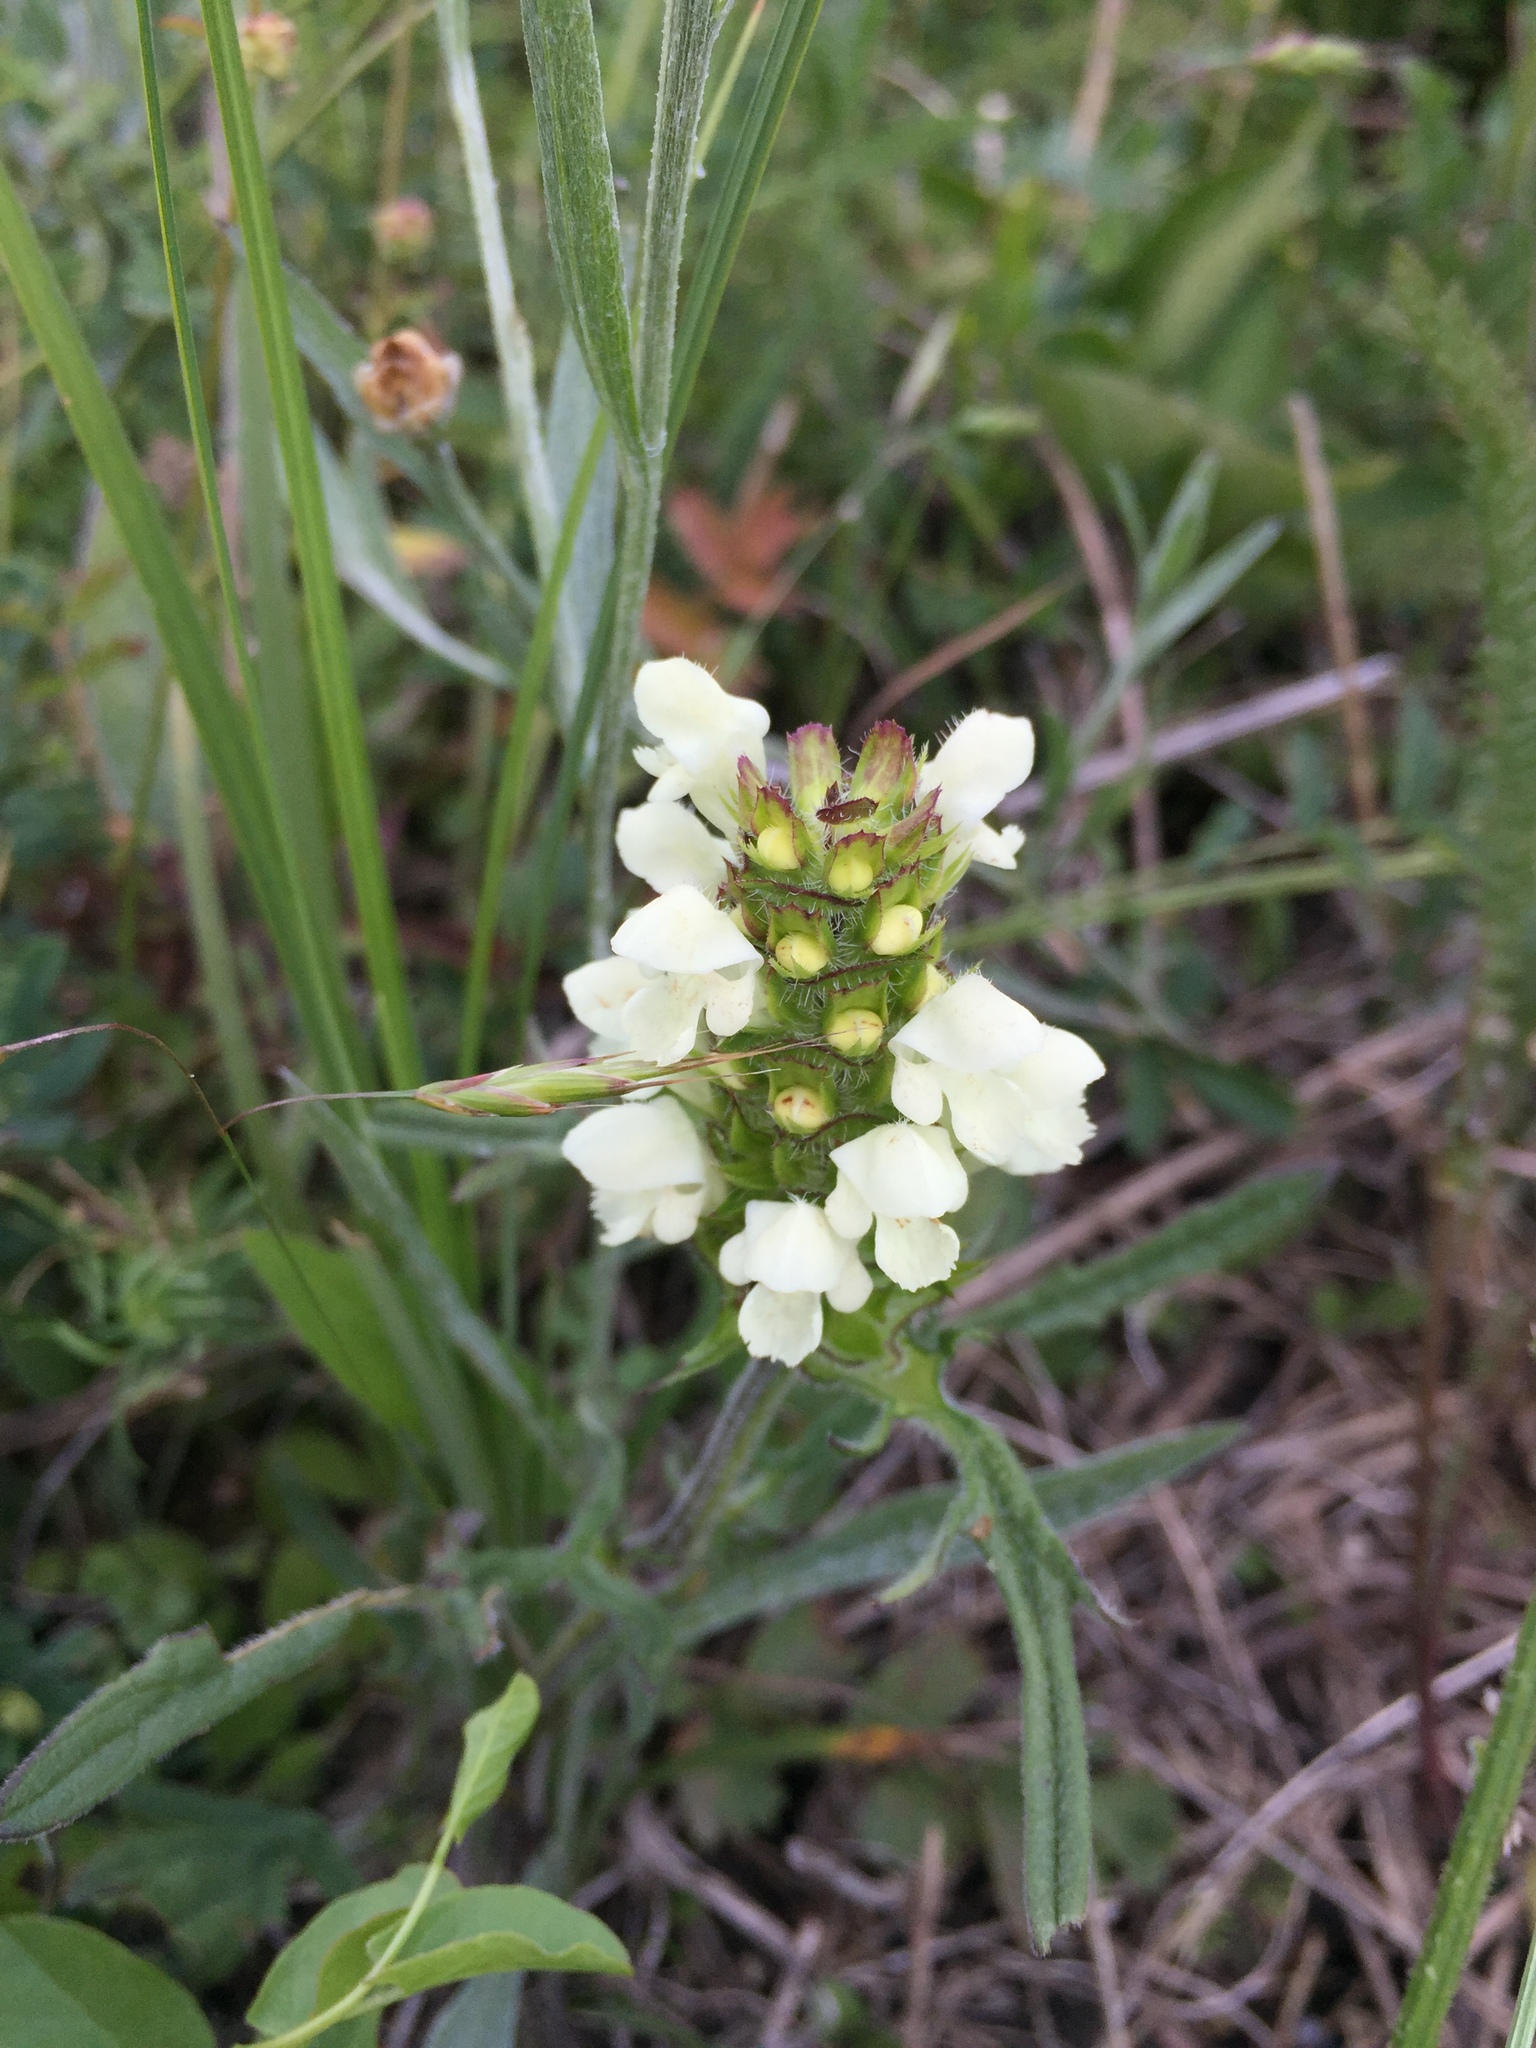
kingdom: Plantae
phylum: Tracheophyta
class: Magnoliopsida
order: Lamiales
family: Lamiaceae
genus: Prunella
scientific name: Prunella laciniata
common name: Cut-leaved selfheal
